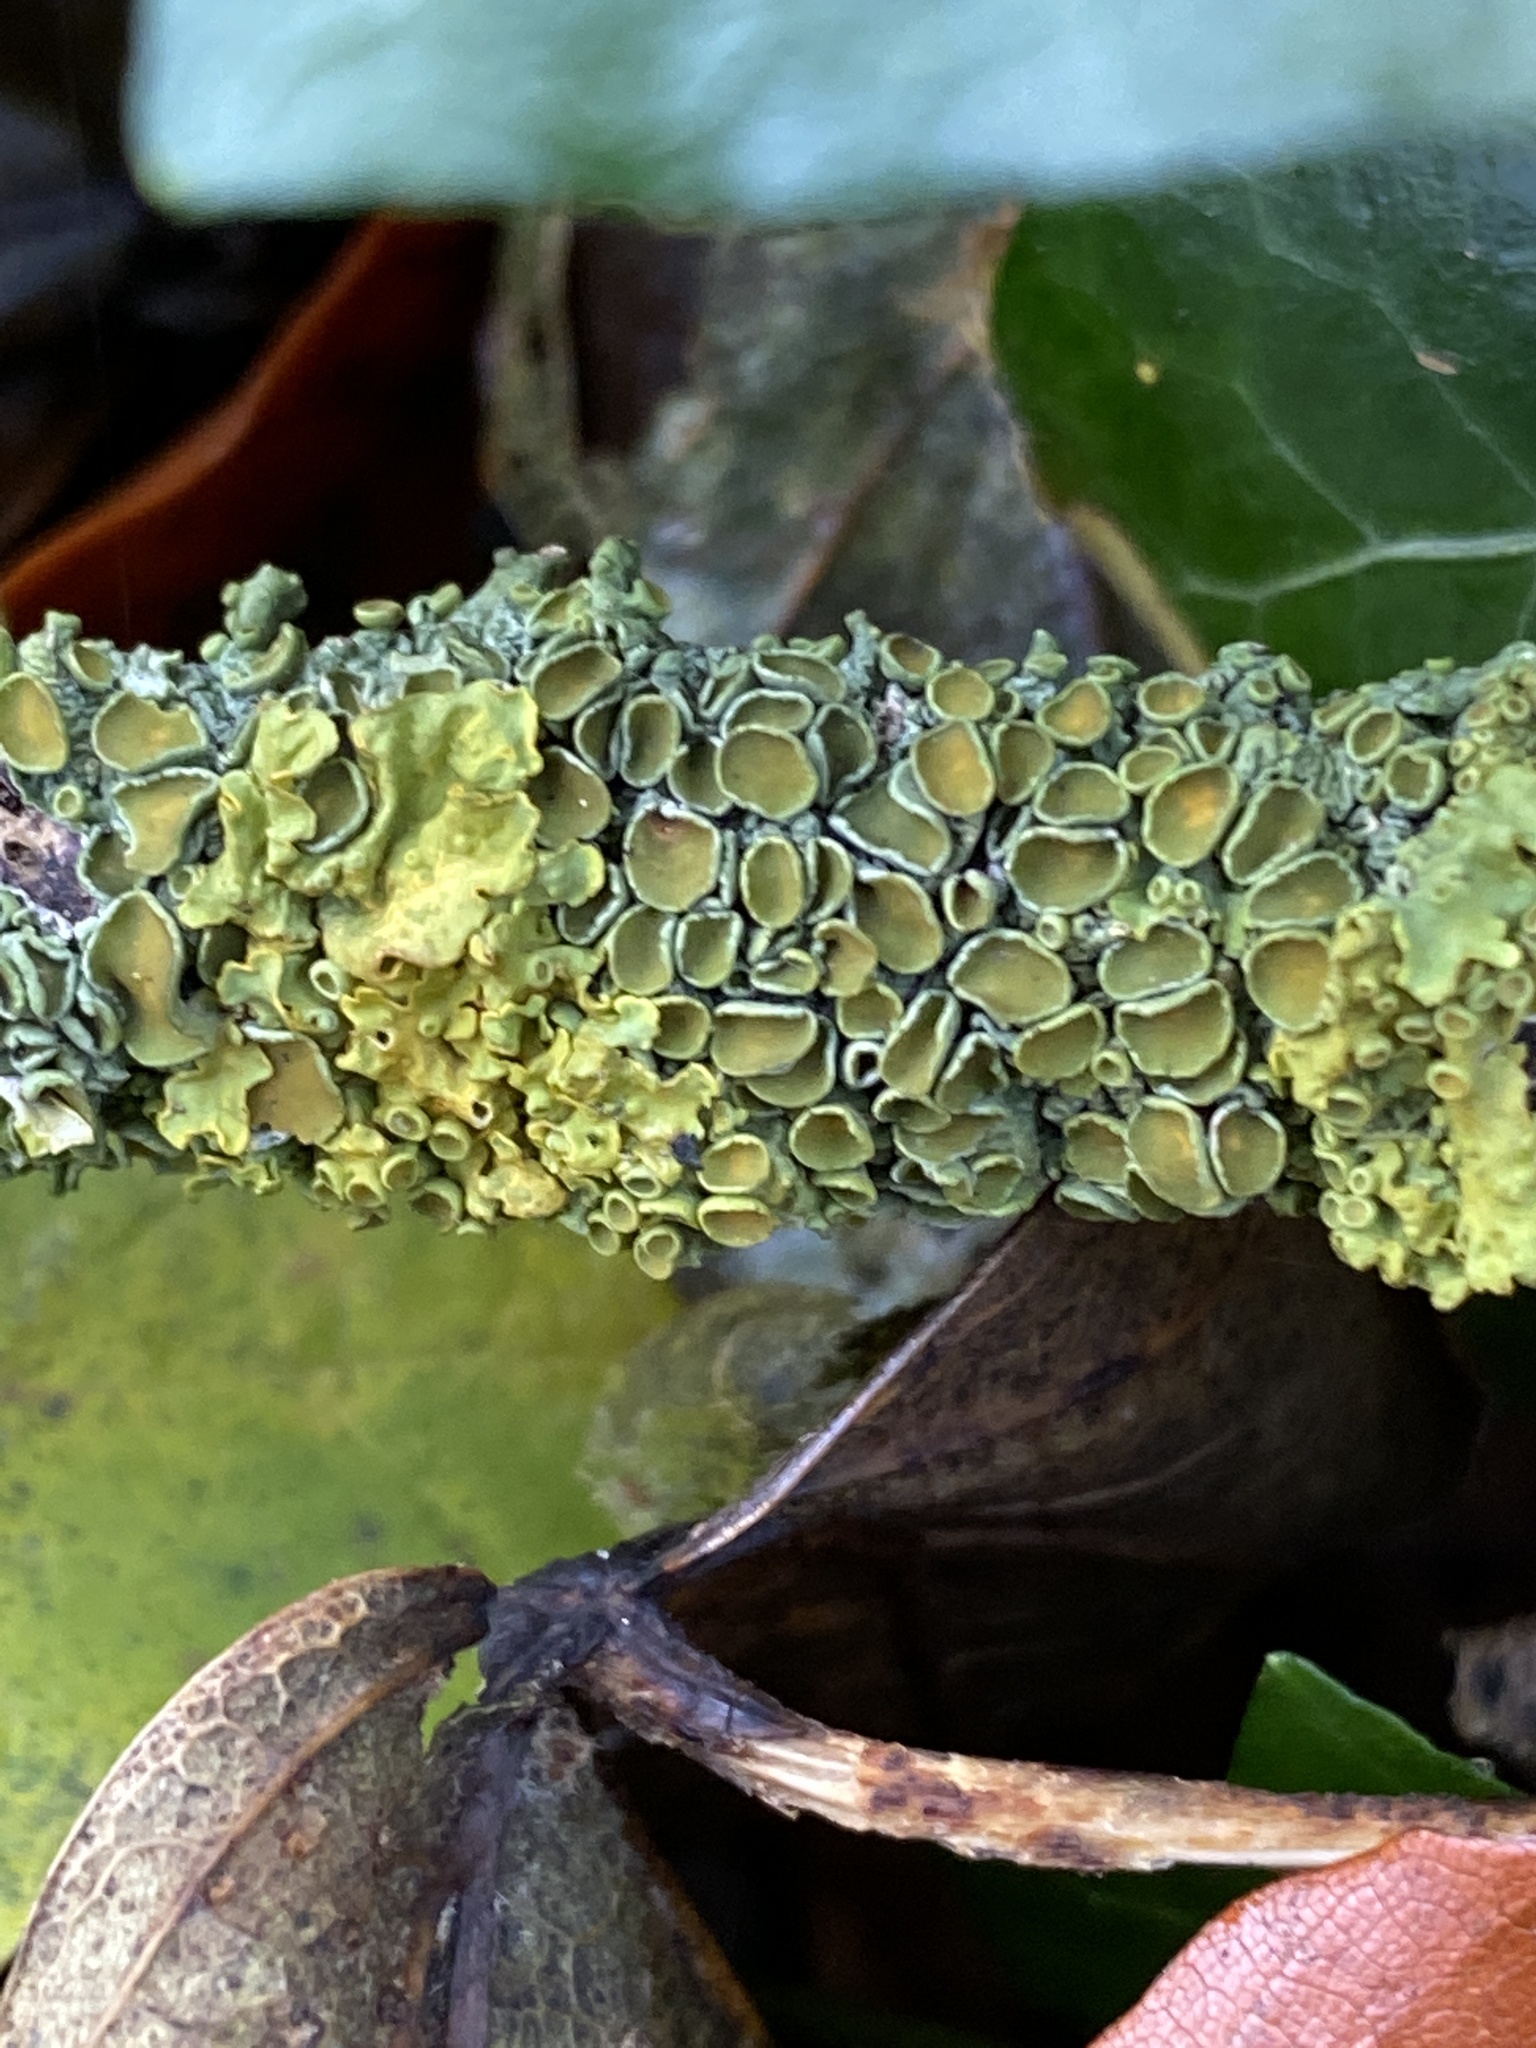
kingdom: Fungi
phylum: Ascomycota
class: Lecanoromycetes
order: Teloschistales
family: Teloschistaceae
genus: Xanthoria
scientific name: Xanthoria parietina
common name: Common orange lichen
